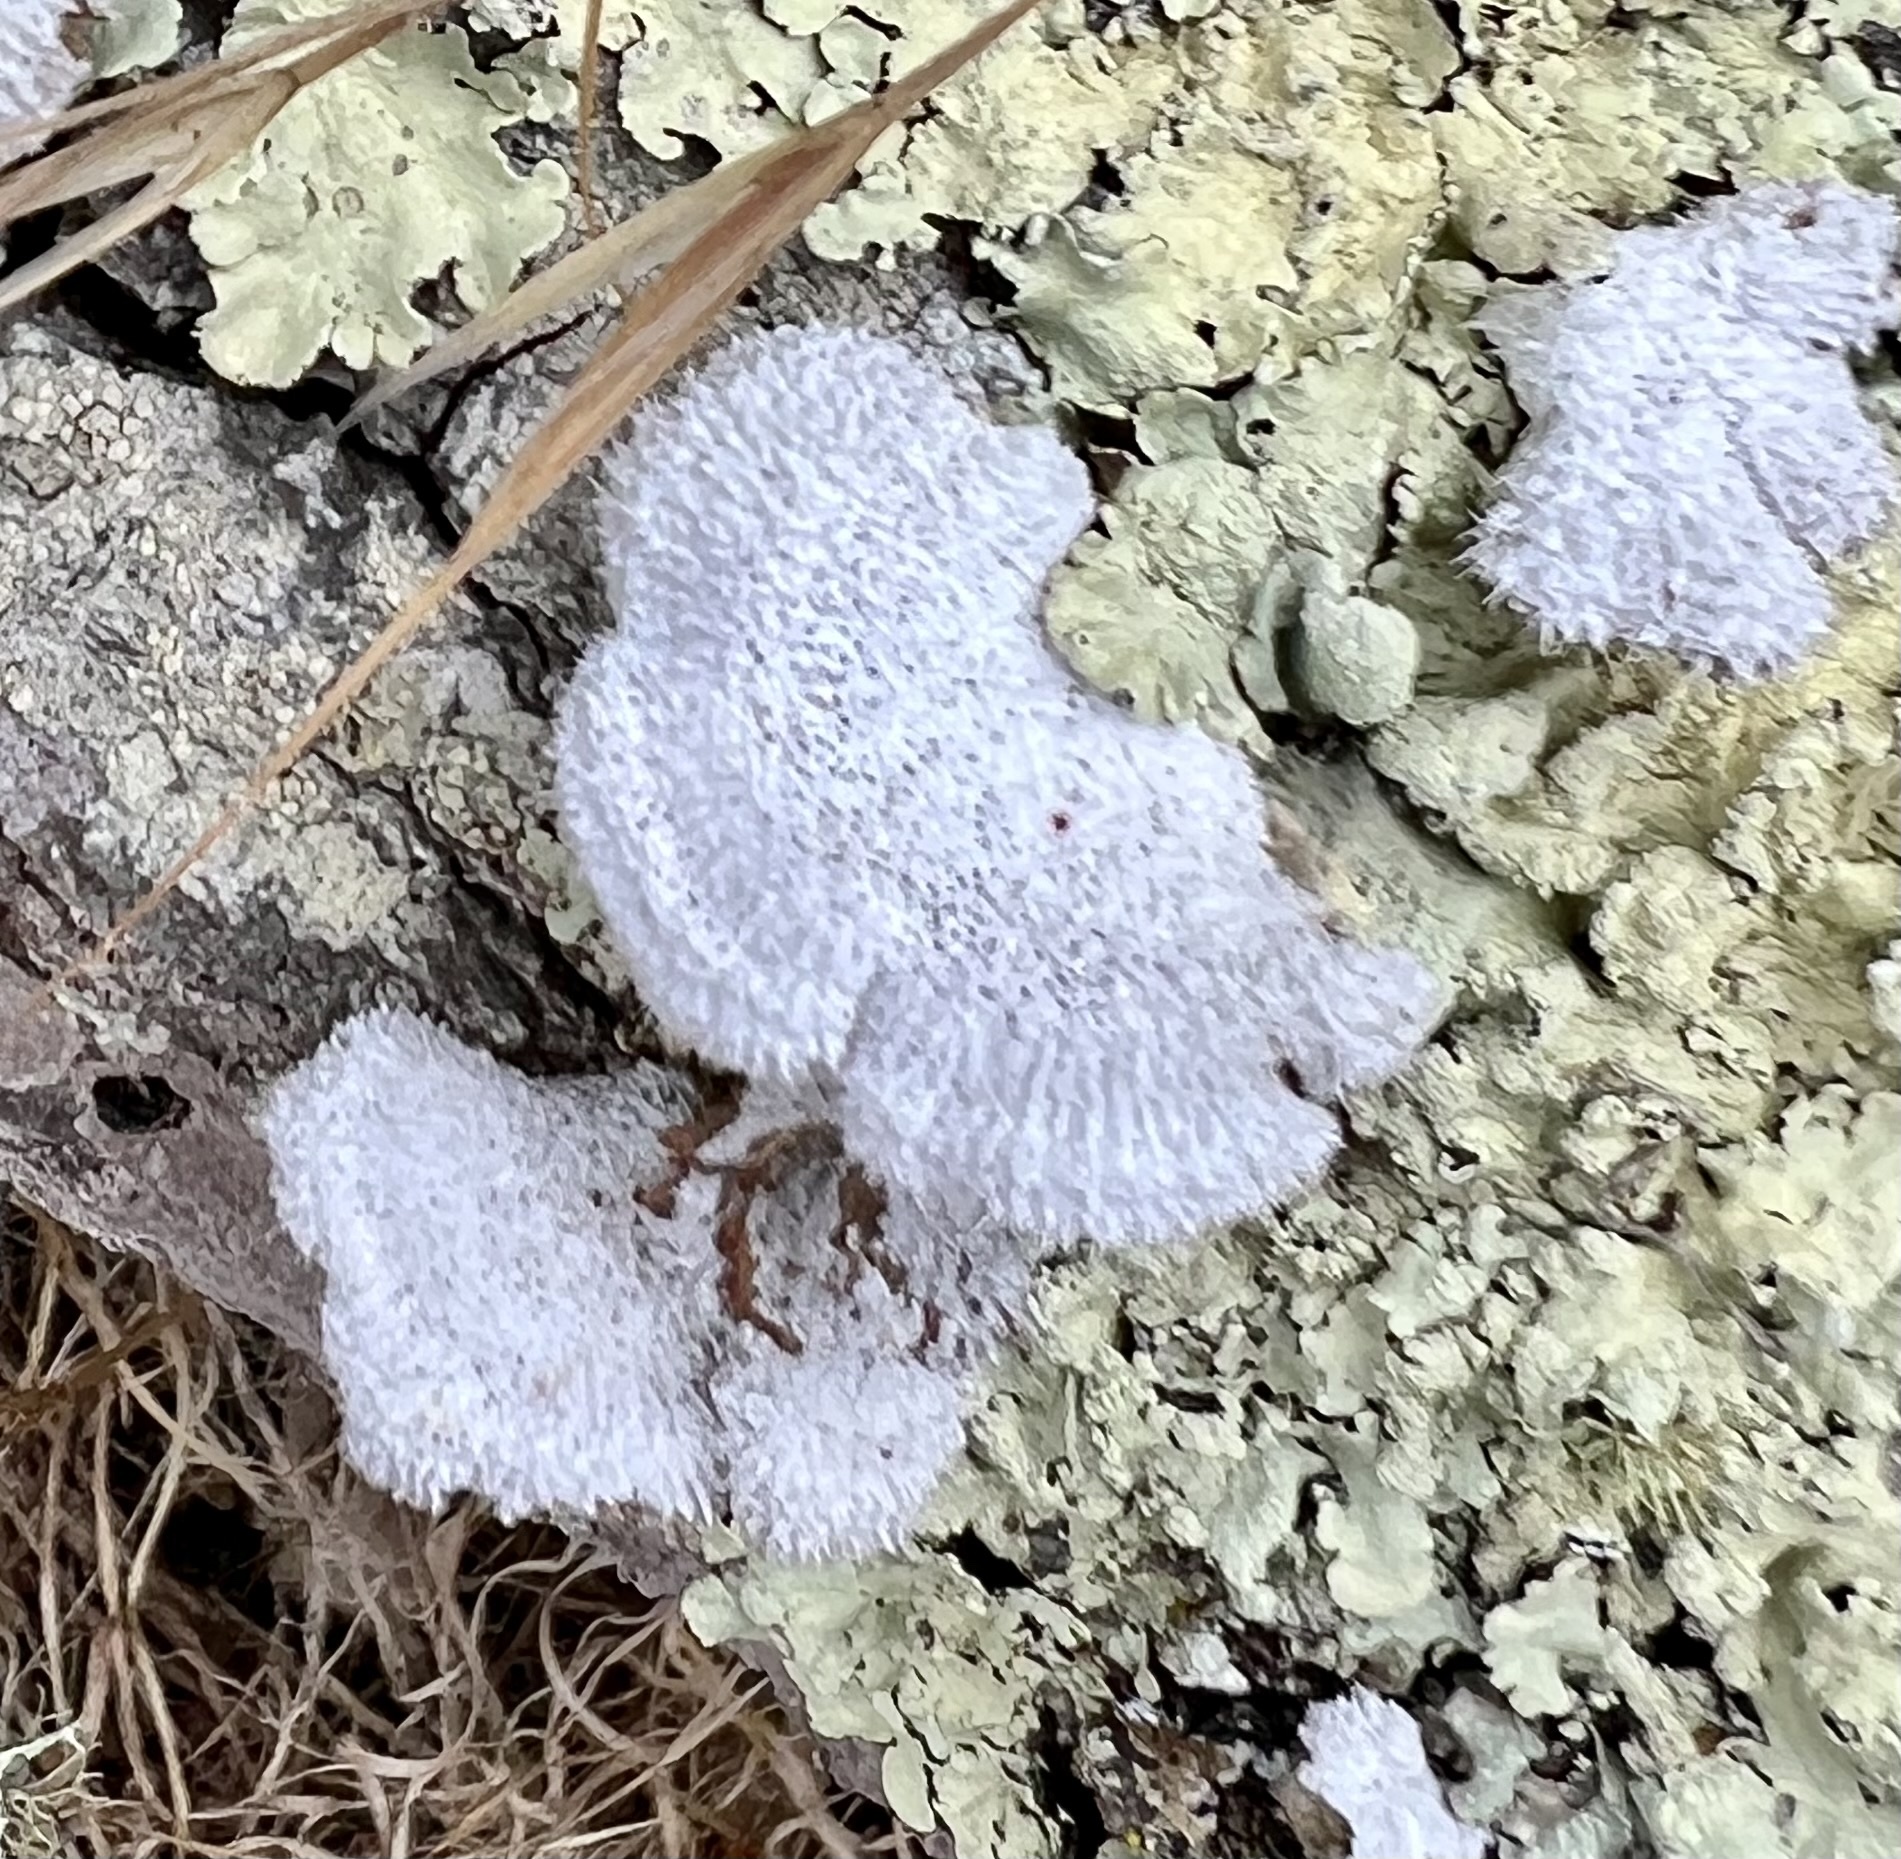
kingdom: Fungi
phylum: Basidiomycota
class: Agaricomycetes
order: Agaricales
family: Schizophyllaceae
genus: Schizophyllum
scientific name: Schizophyllum commune
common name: Common porecrust
